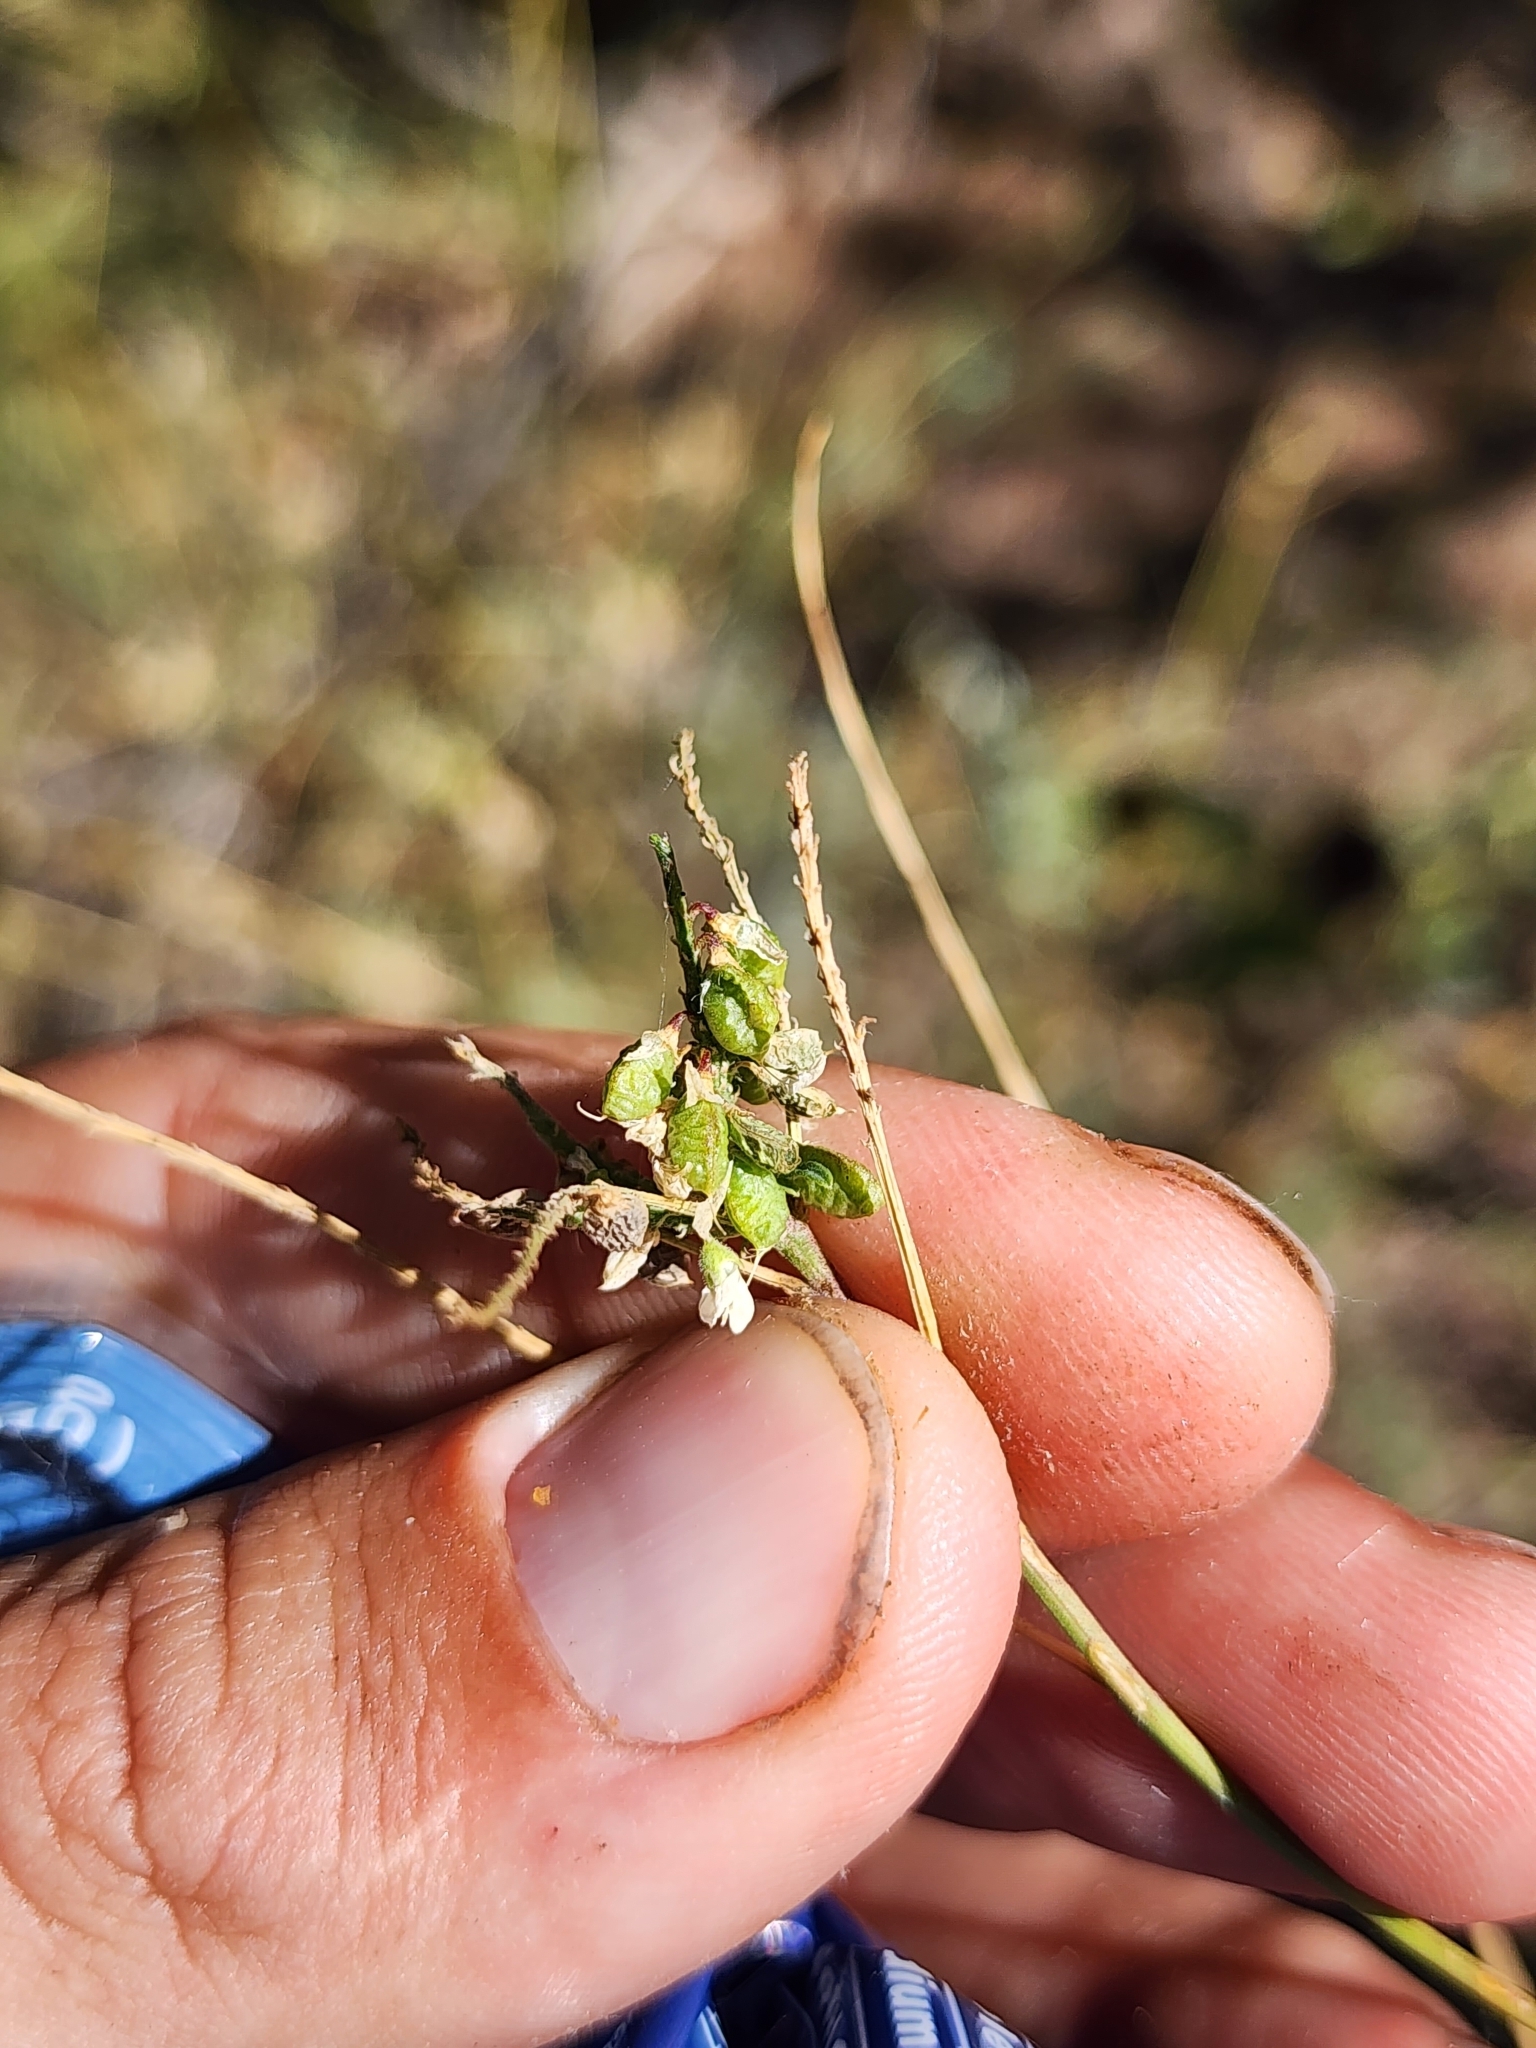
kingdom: Plantae
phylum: Tracheophyta
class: Magnoliopsida
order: Fabales
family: Fabaceae
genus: Melilotus
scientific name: Melilotus albus
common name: White melilot
